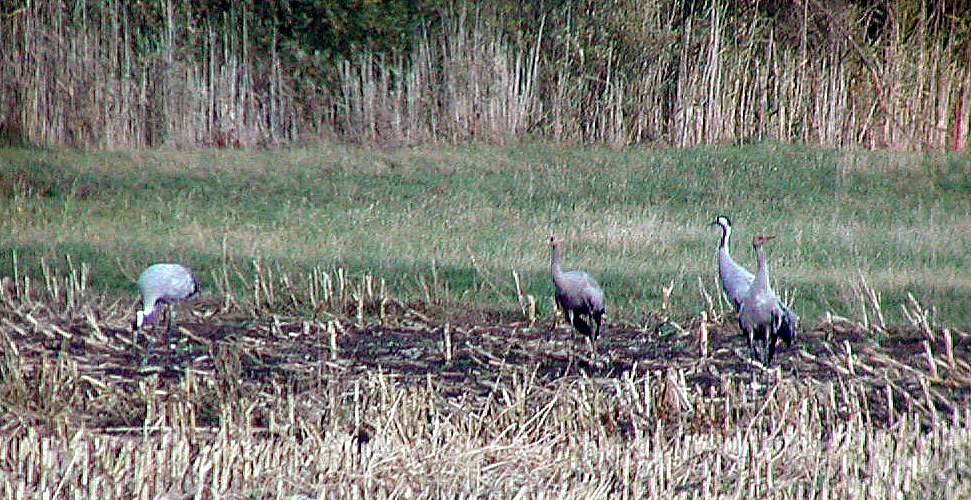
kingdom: Animalia
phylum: Chordata
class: Aves
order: Gruiformes
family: Gruidae
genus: Grus
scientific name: Grus grus
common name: Common crane
